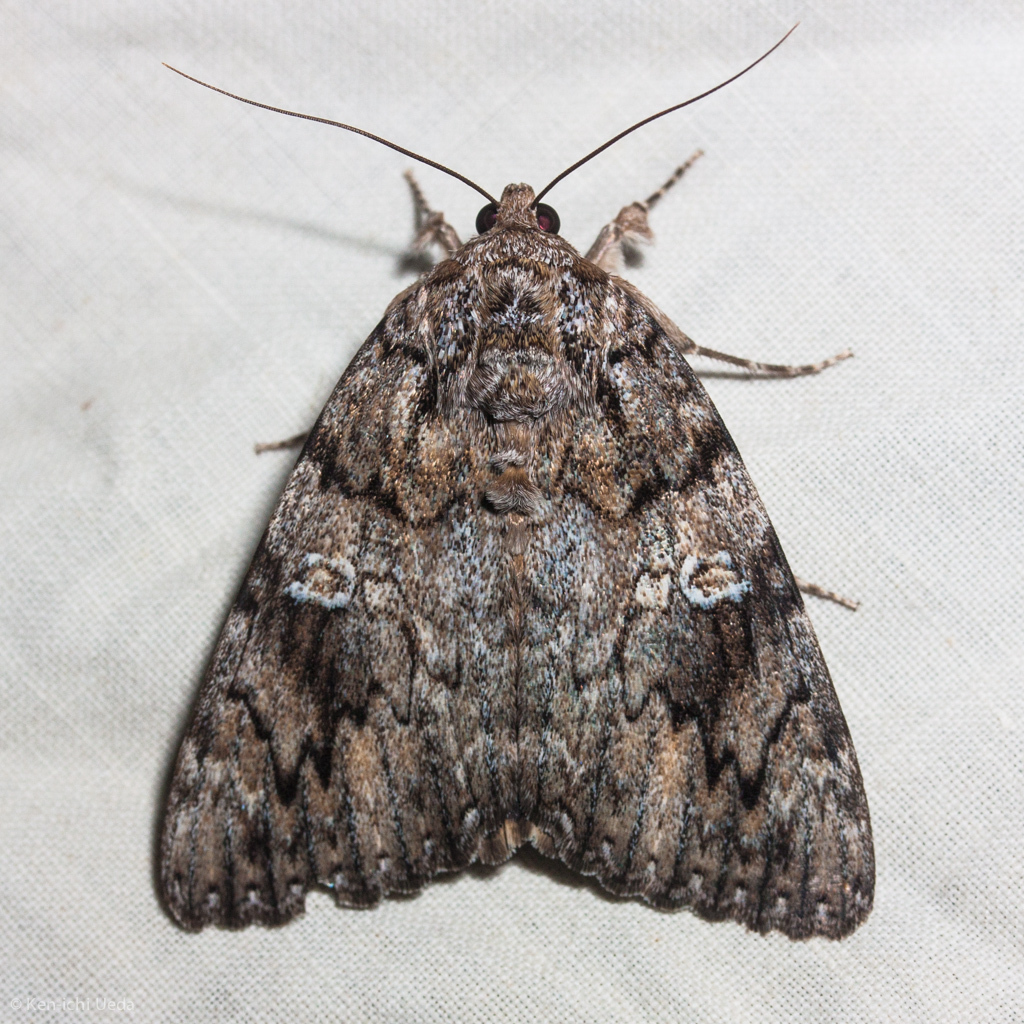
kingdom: Animalia
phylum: Arthropoda
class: Insecta
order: Lepidoptera
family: Erebidae
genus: Catocala
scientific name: Catocala ilia
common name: Ilia underwing
